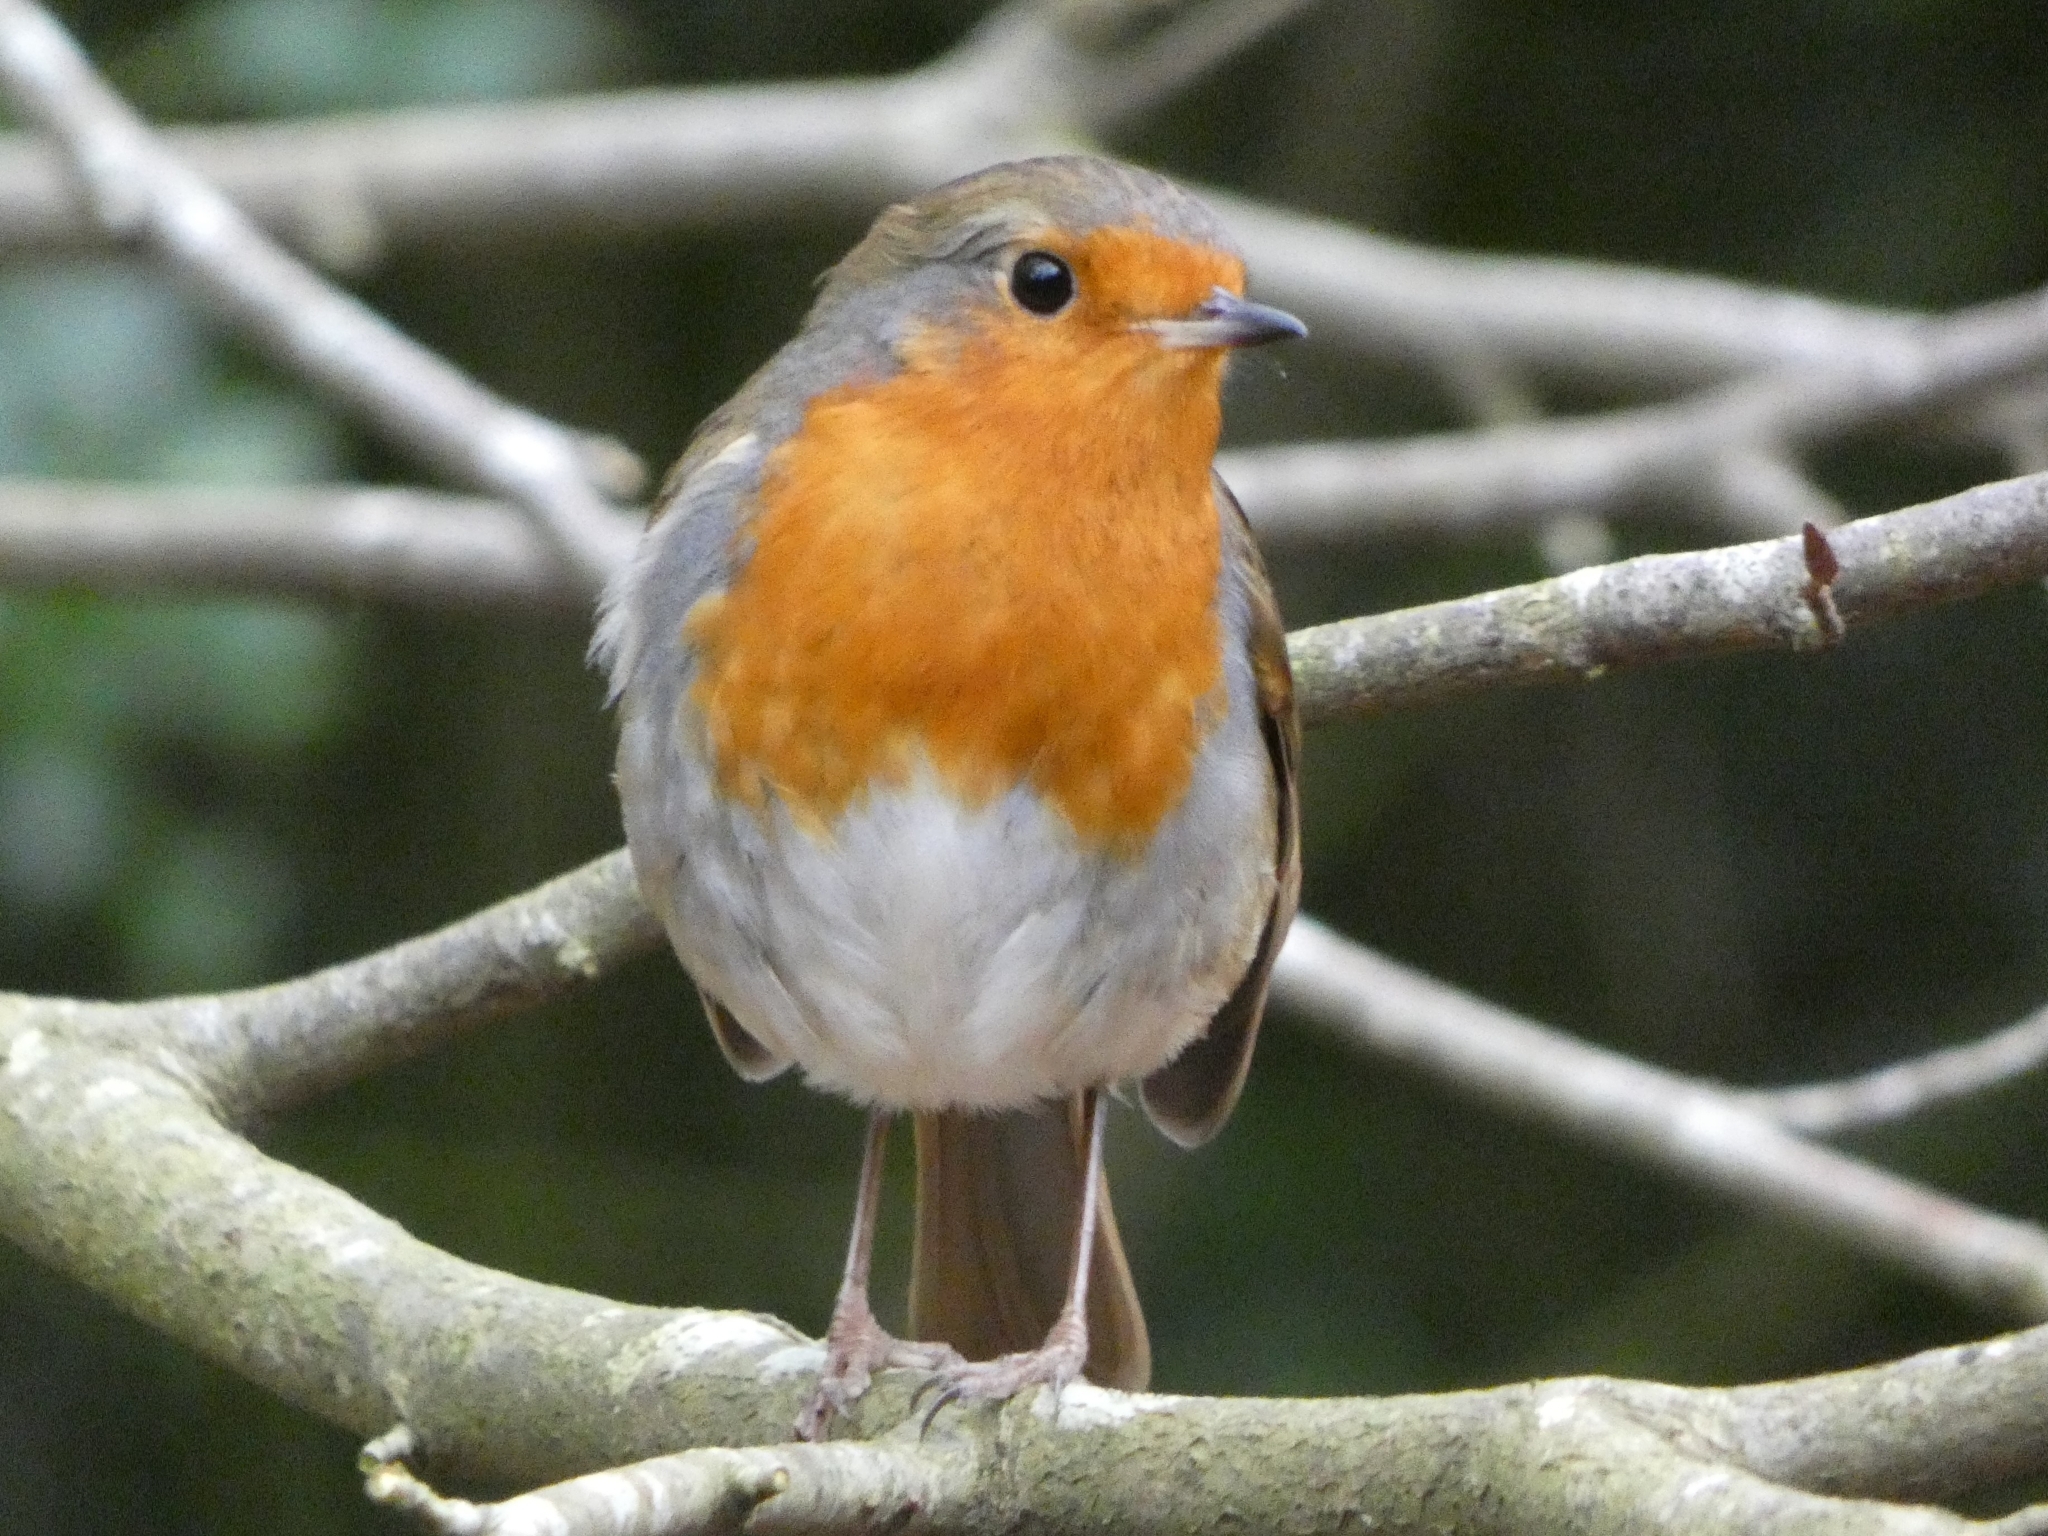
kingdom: Animalia
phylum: Chordata
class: Aves
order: Passeriformes
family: Muscicapidae
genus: Erithacus
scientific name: Erithacus rubecula
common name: European robin
